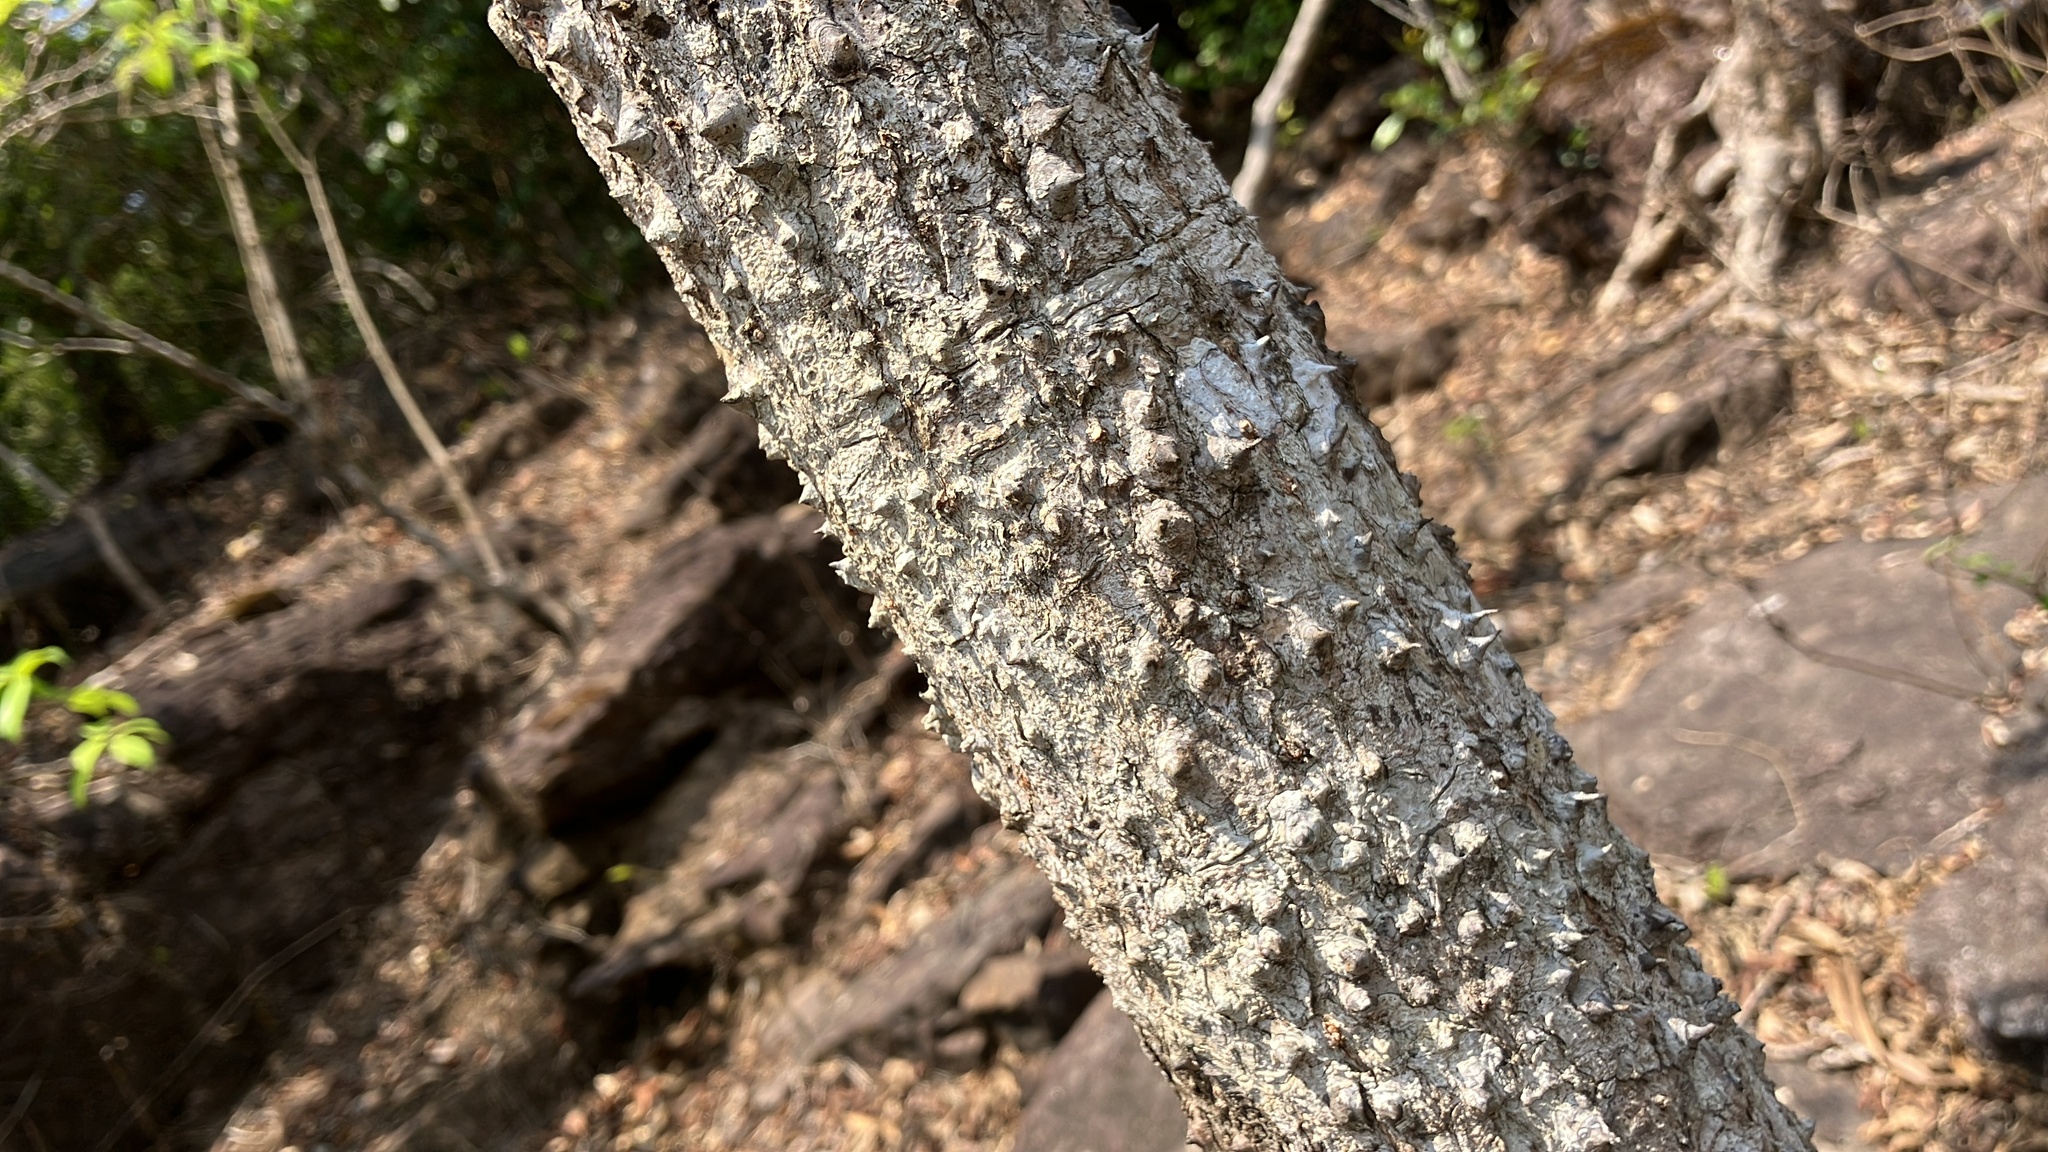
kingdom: Plantae
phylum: Tracheophyta
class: Magnoliopsida
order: Malvales
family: Malvaceae
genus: Bombax
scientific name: Bombax ceiba
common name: Northern-cottonwood
